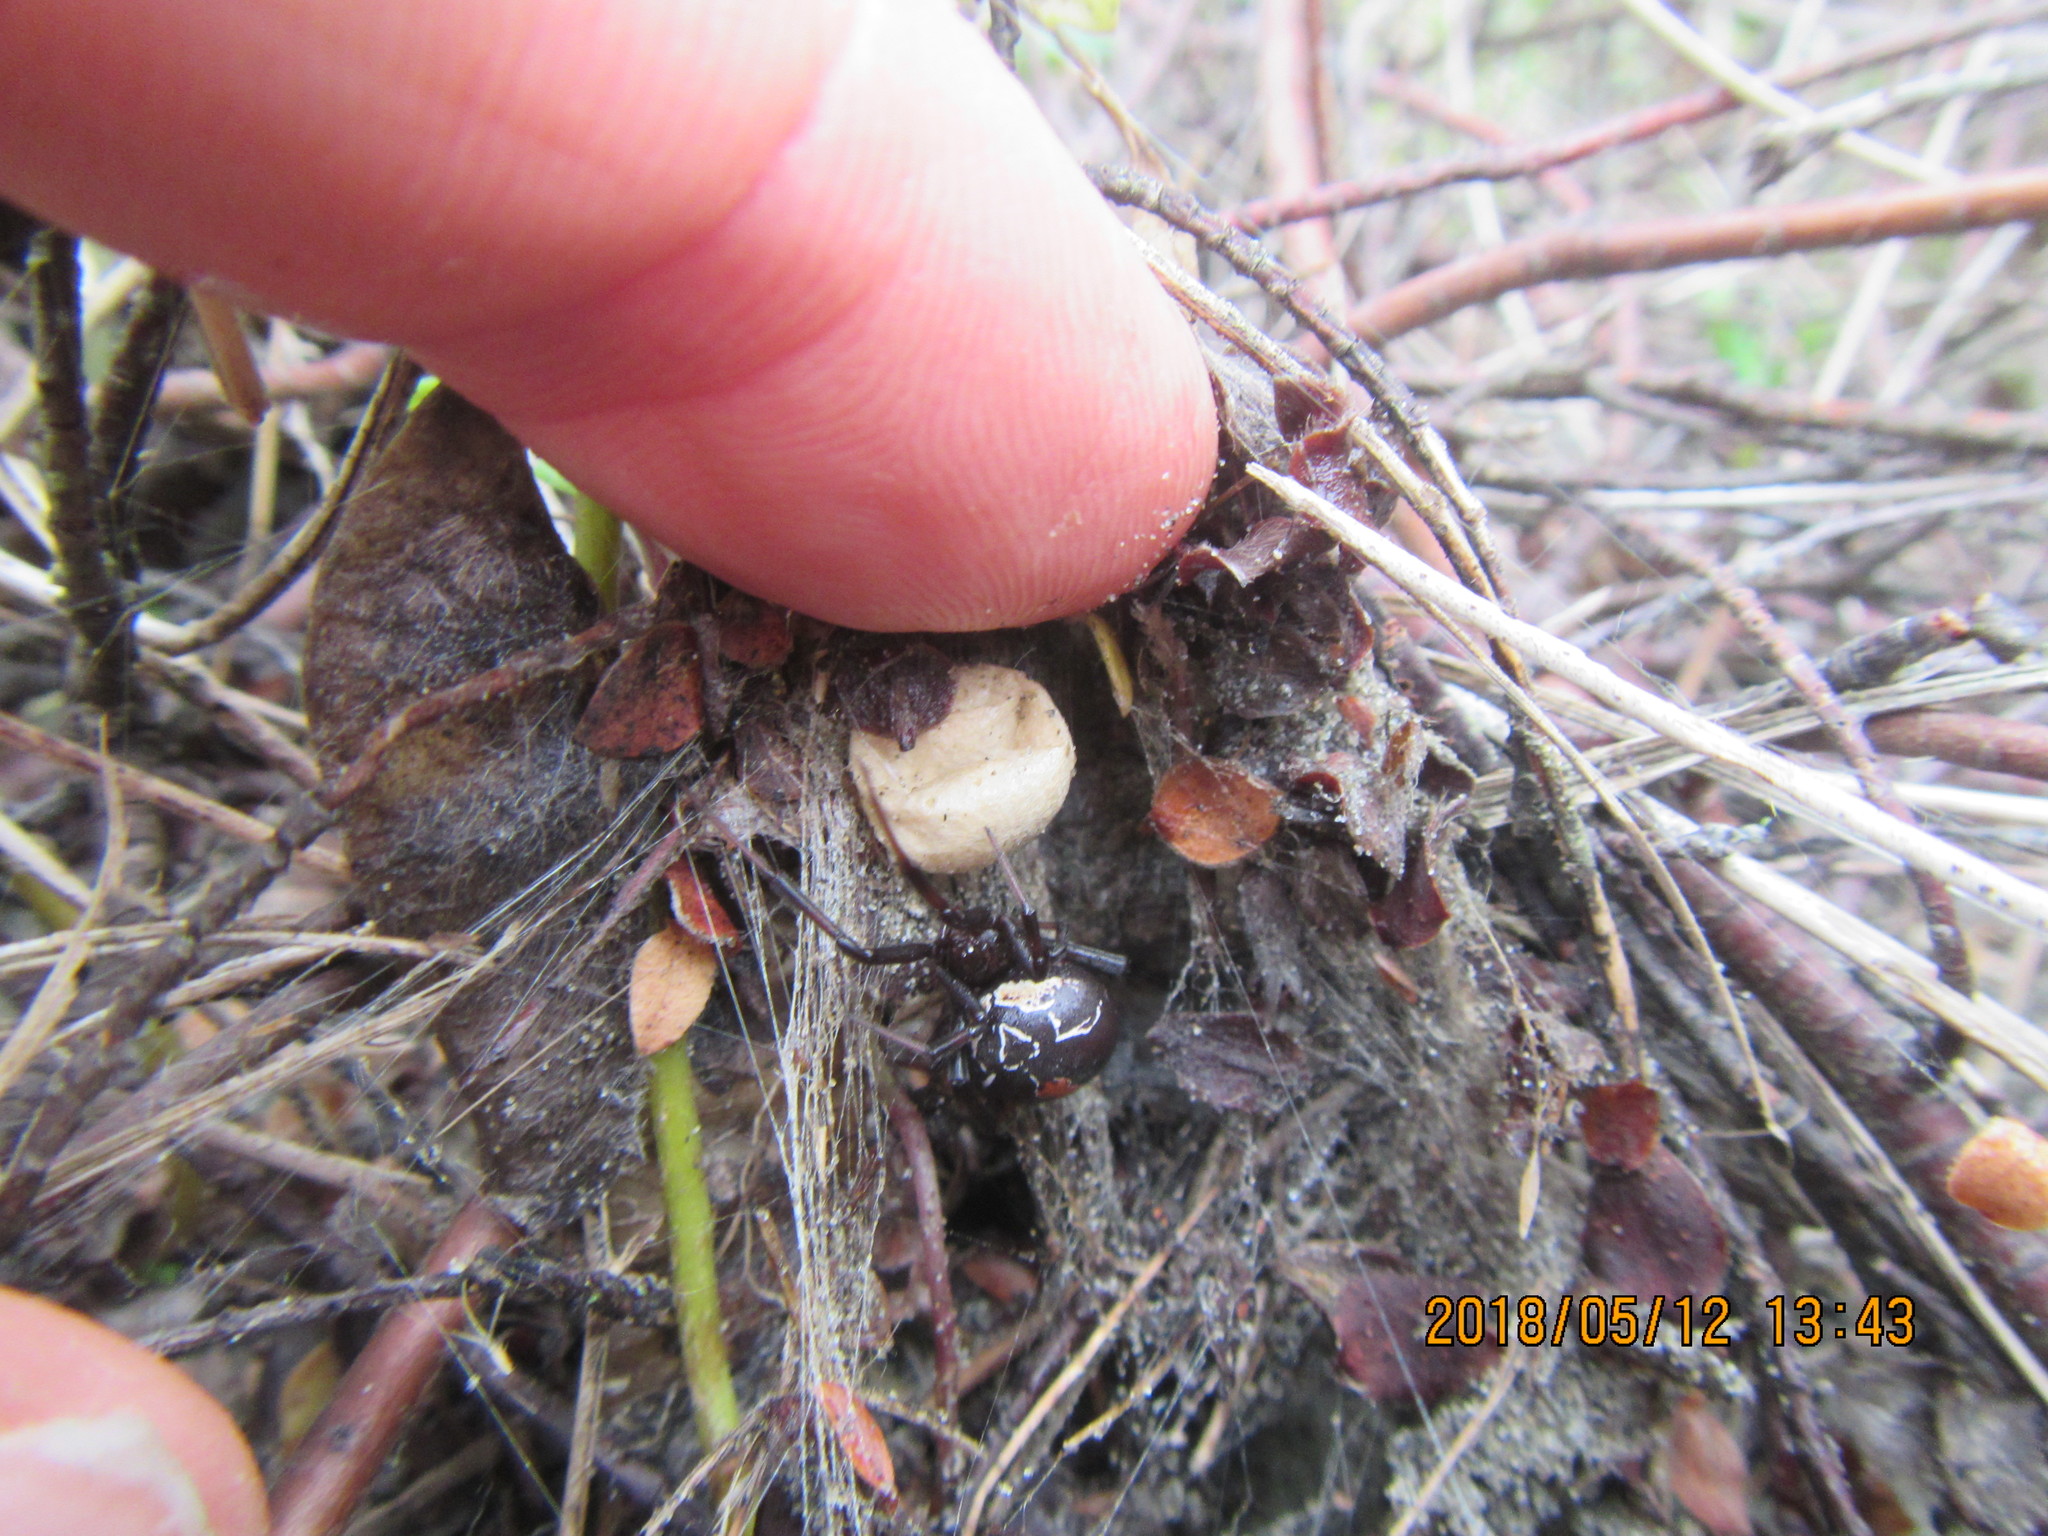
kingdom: Plantae
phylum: Tracheophyta
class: Magnoliopsida
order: Malvales
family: Thymelaeaceae
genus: Pimelea
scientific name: Pimelea villosa
